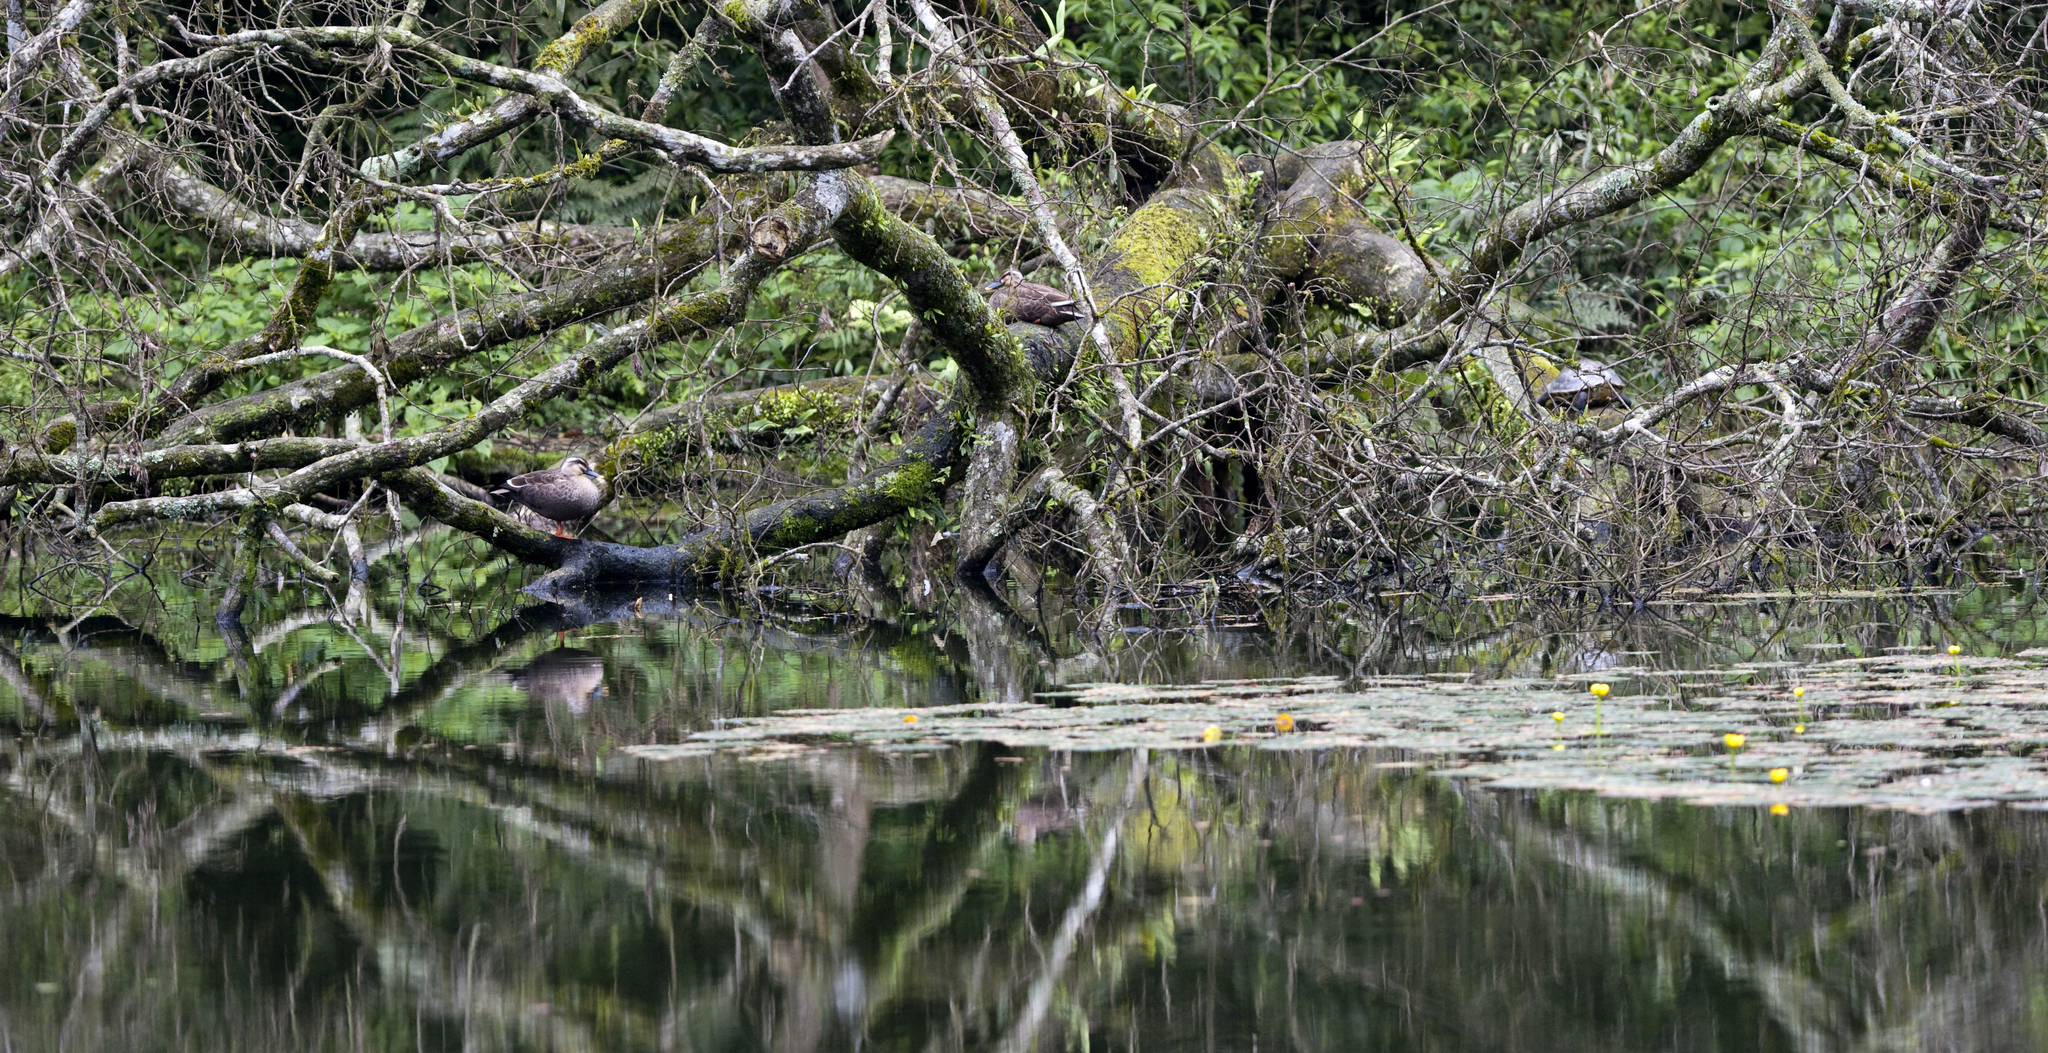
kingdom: Animalia
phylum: Chordata
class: Aves
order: Anseriformes
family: Anatidae
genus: Anas
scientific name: Anas zonorhyncha
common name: Eastern spot-billed duck
